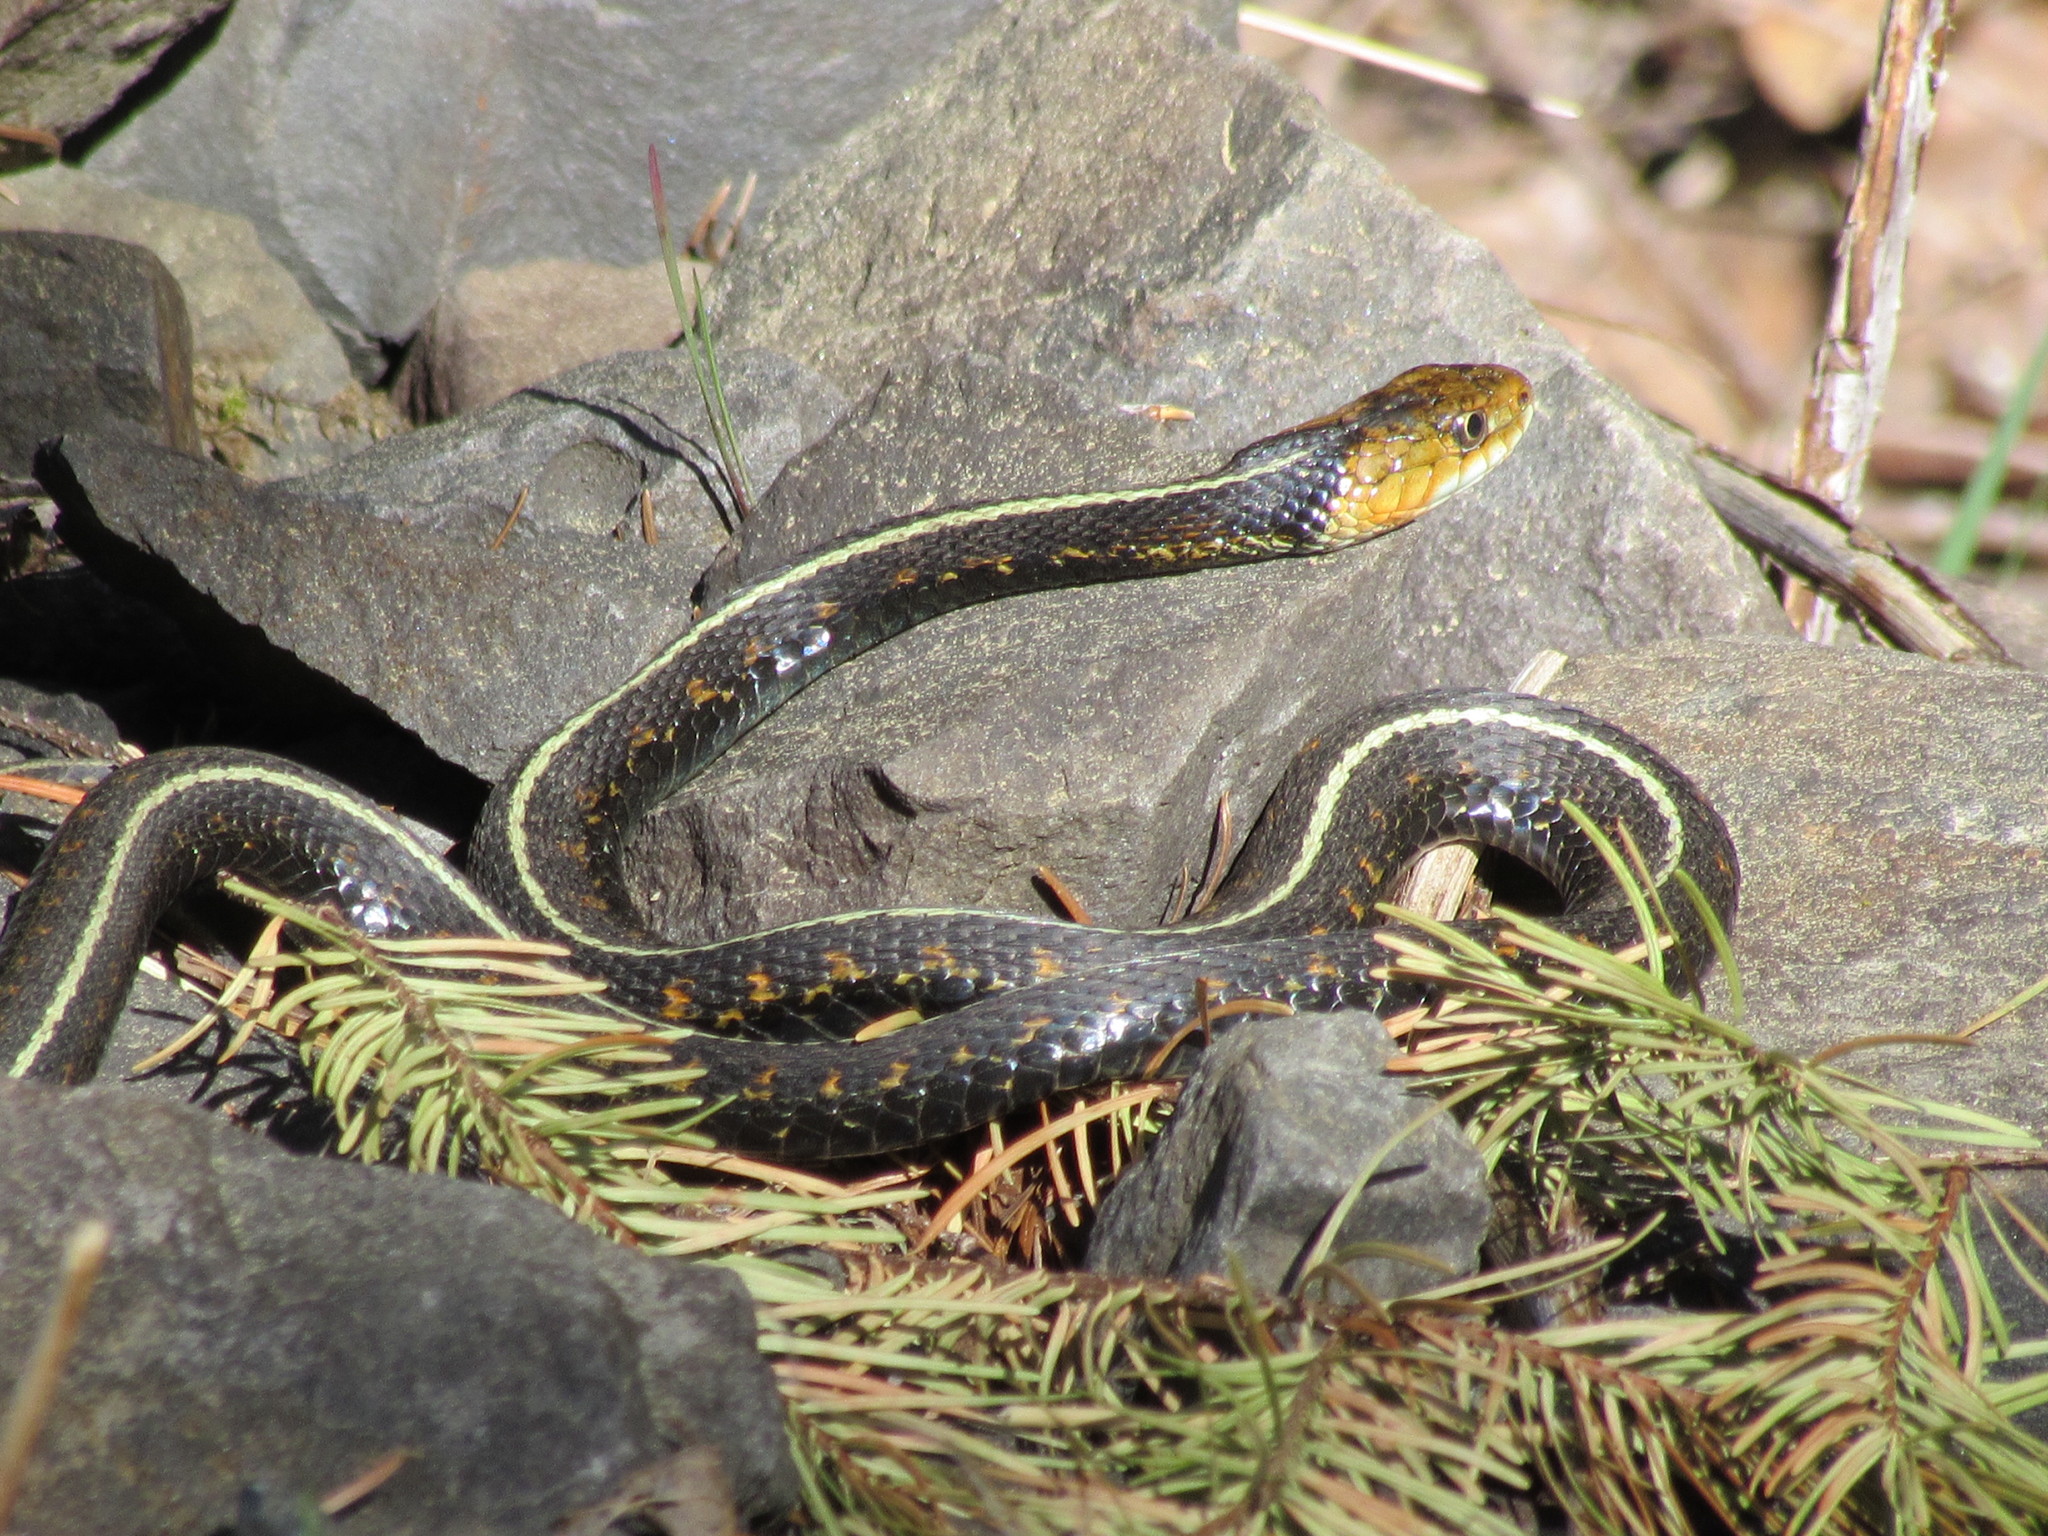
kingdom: Animalia
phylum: Chordata
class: Squamata
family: Colubridae
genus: Thamnophis
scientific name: Thamnophis sirtalis
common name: Common garter snake
